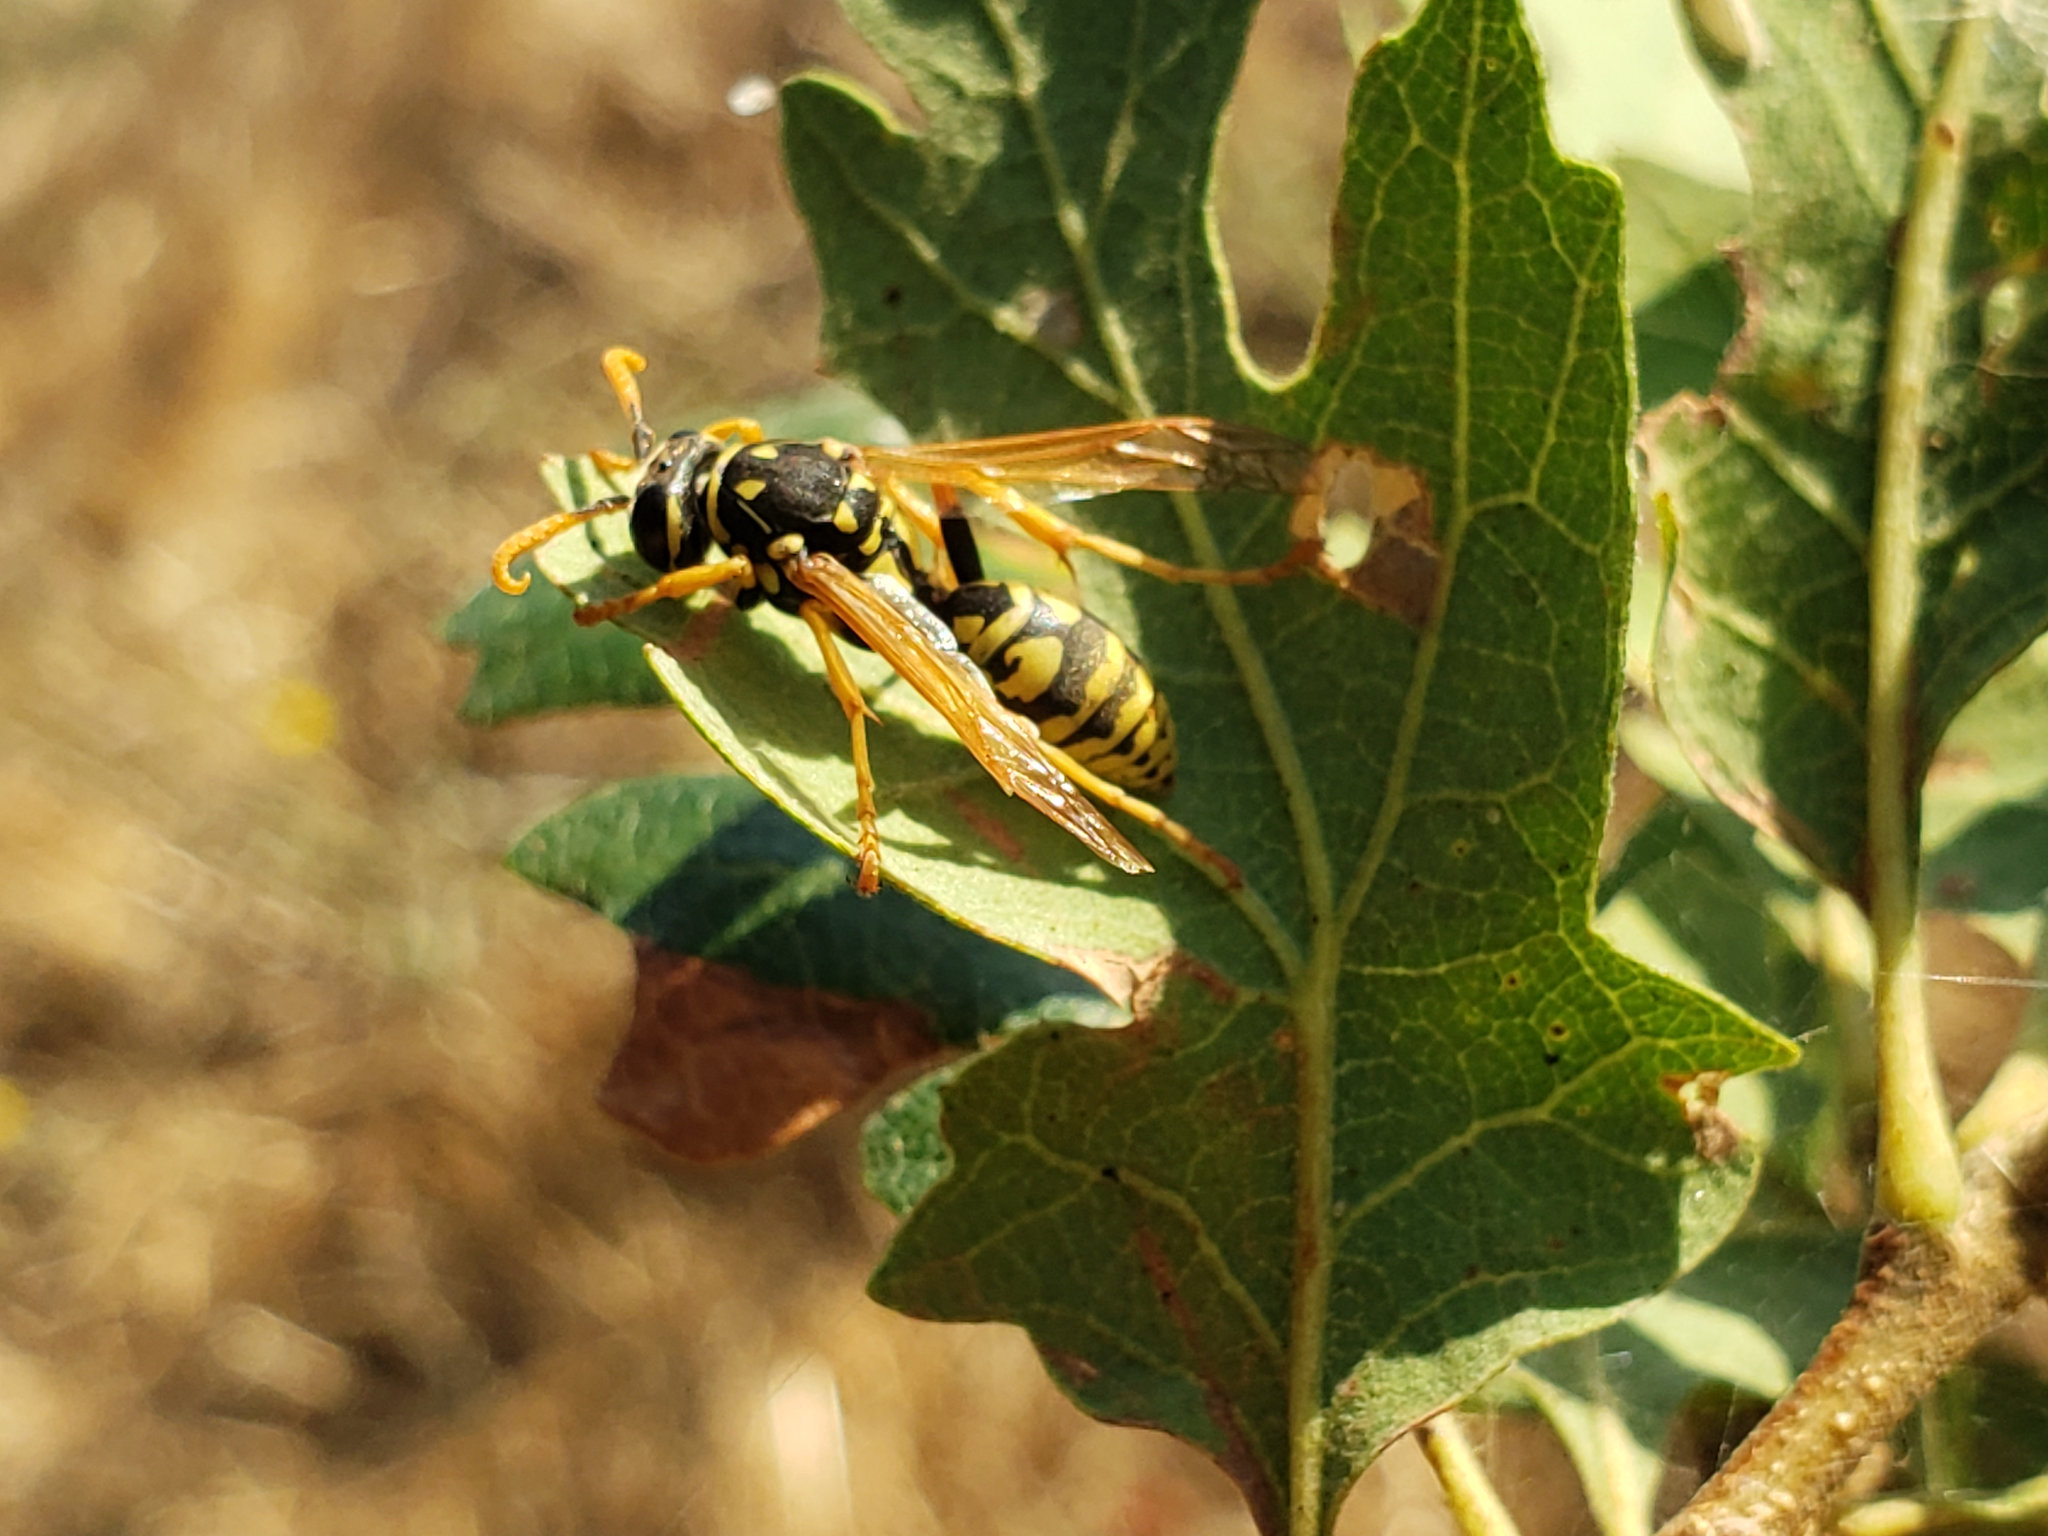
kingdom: Animalia
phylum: Arthropoda
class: Insecta
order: Hymenoptera
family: Eumenidae
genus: Polistes
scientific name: Polistes dominula
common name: Paper wasp
